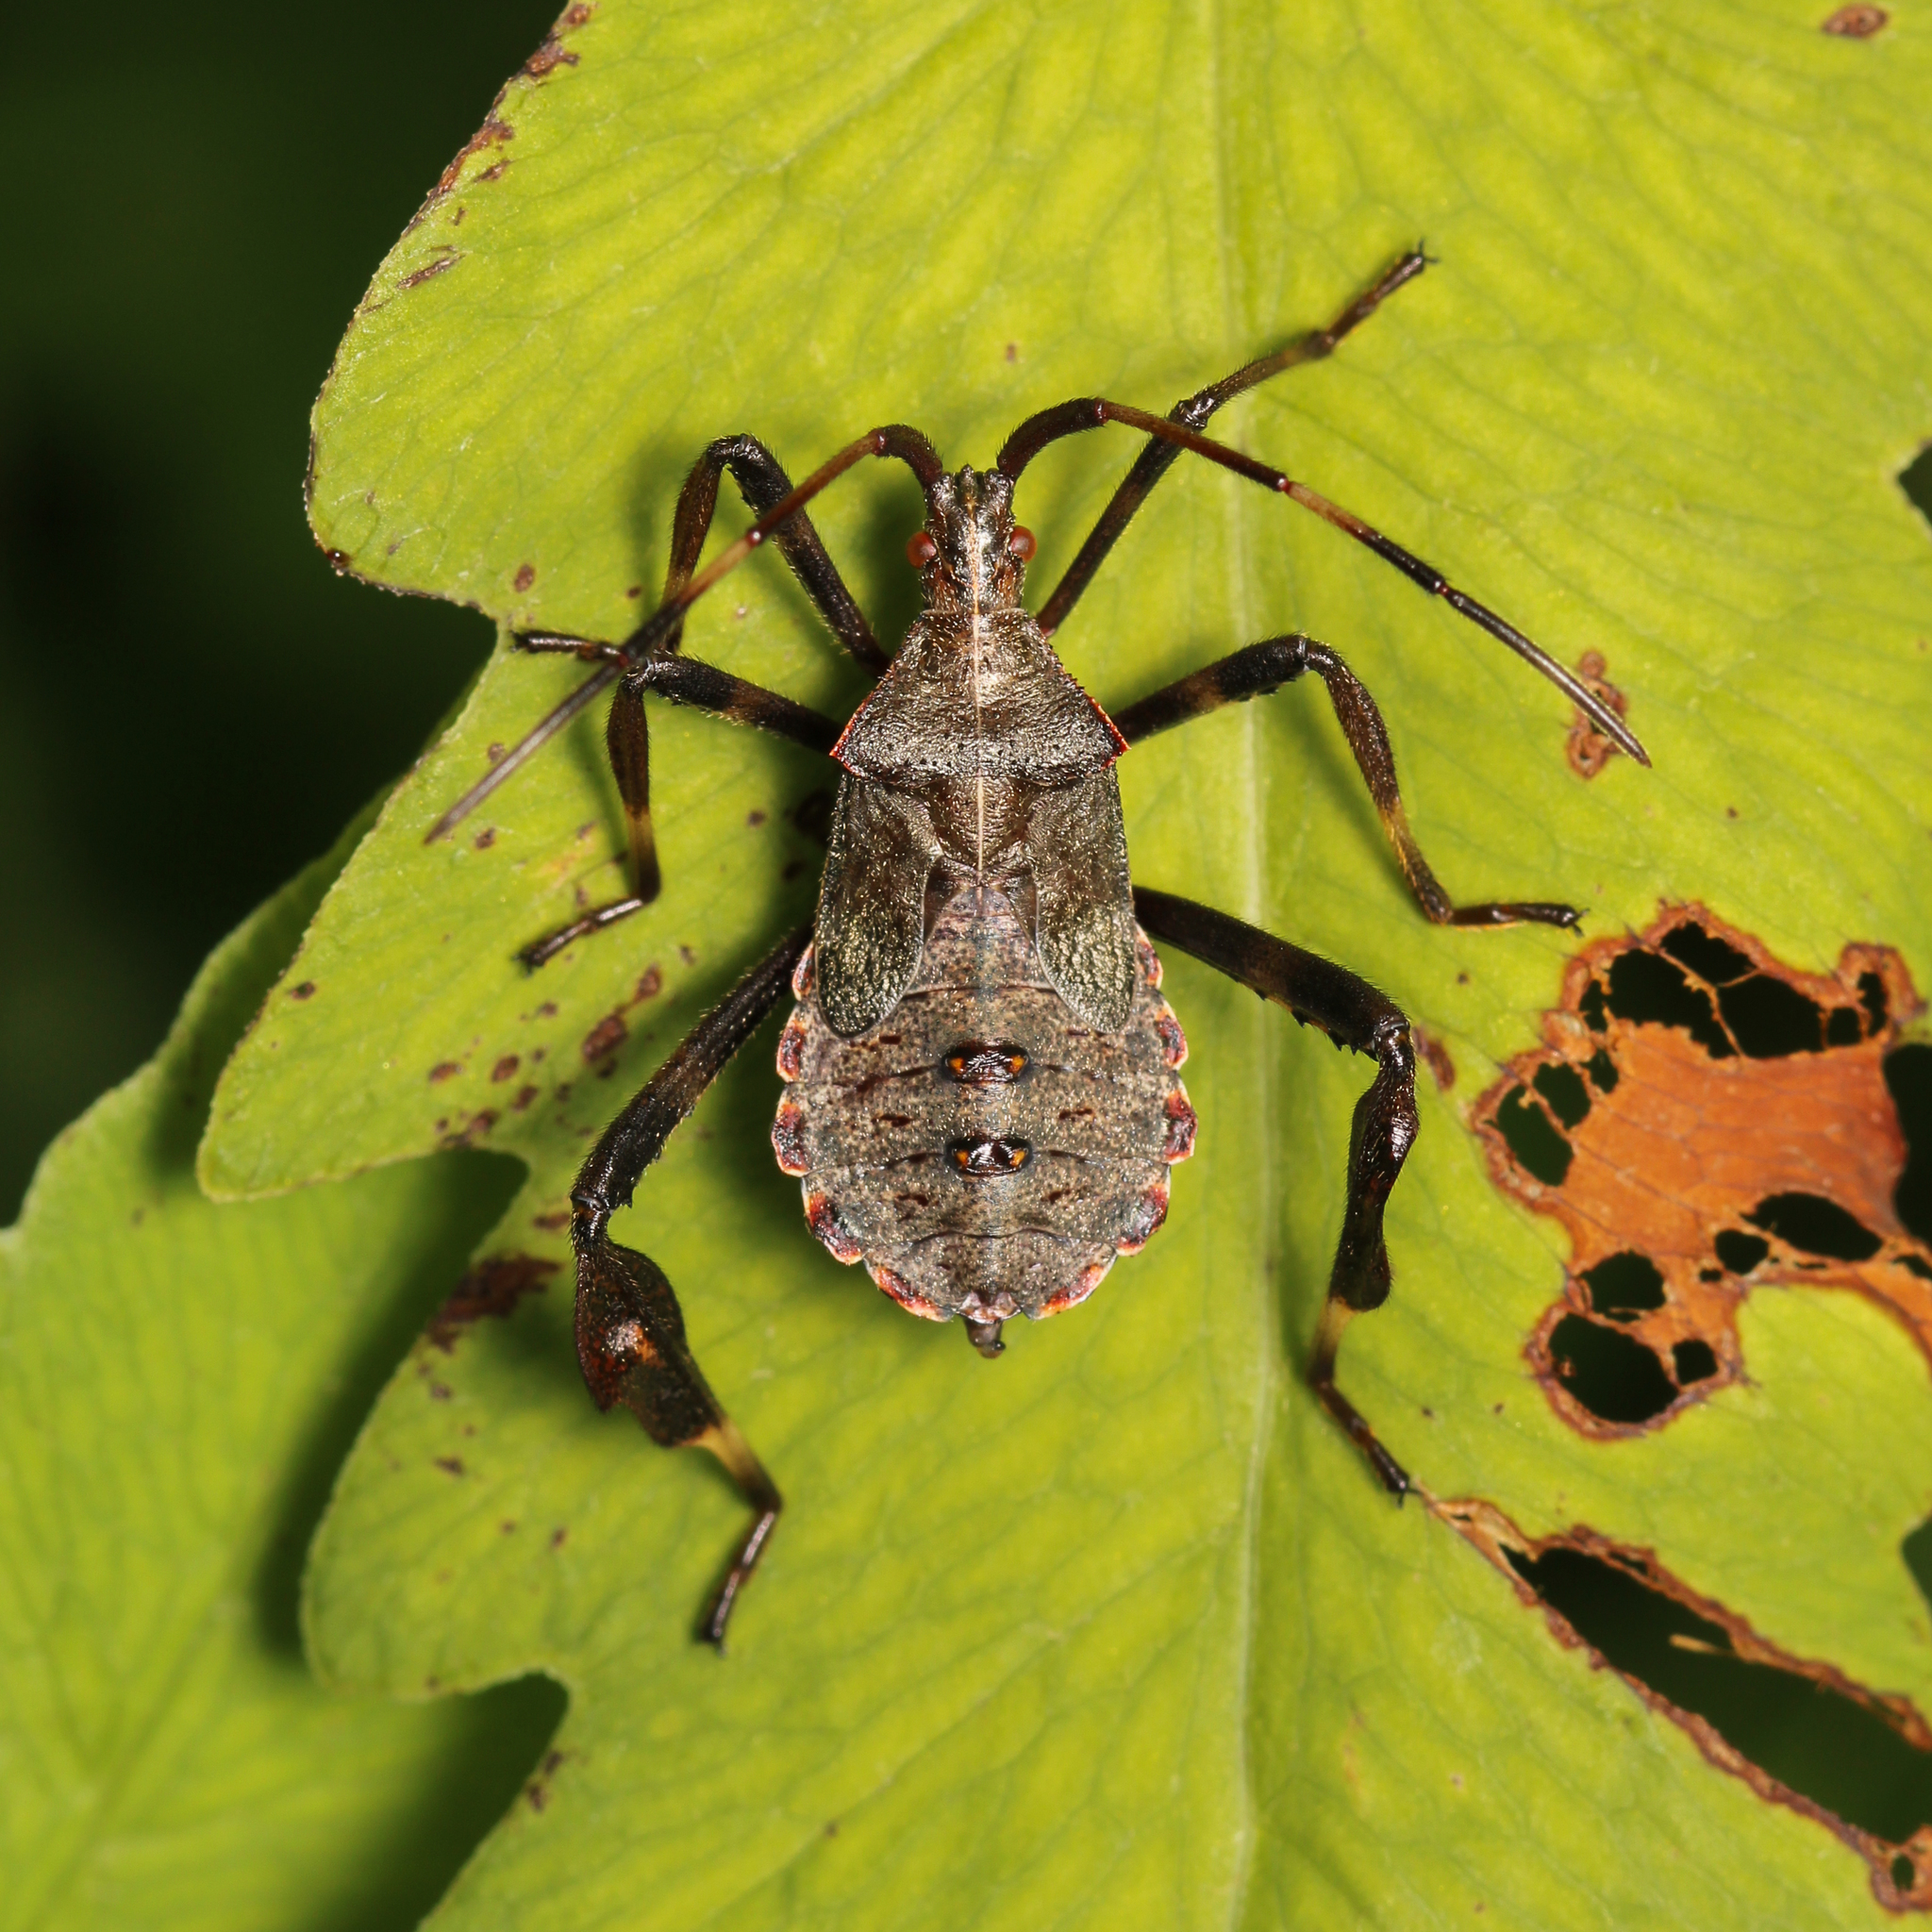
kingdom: Animalia
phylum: Arthropoda
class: Insecta
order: Hemiptera
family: Coreidae
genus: Acanthocephala
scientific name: Acanthocephala terminalis
